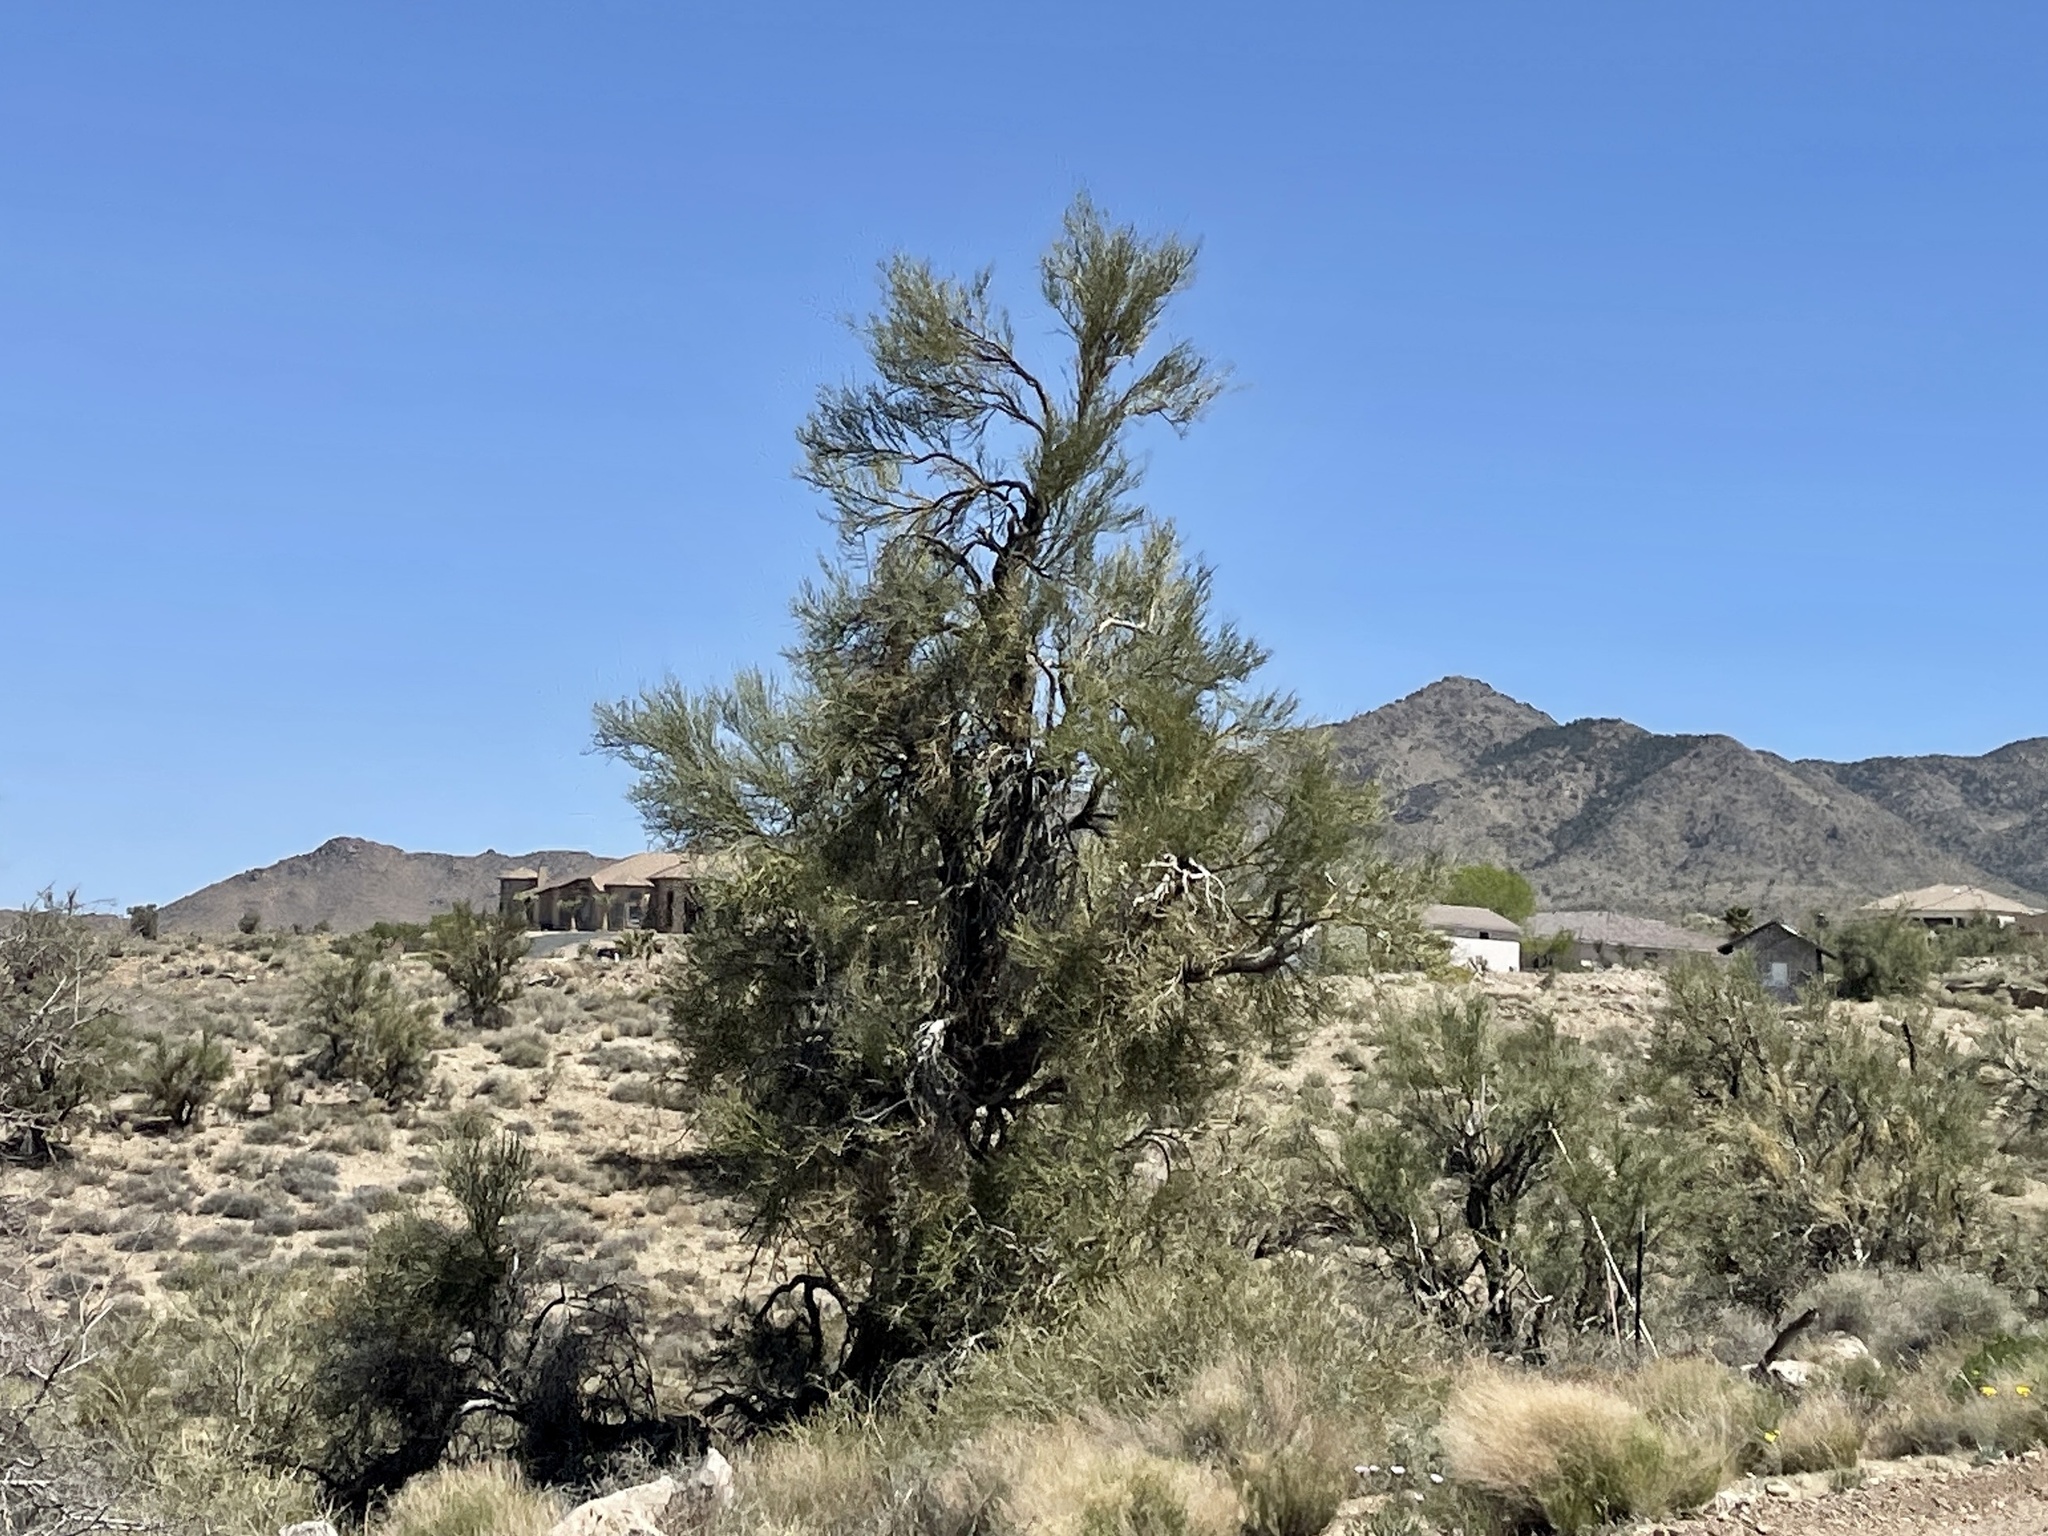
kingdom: Plantae
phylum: Tracheophyta
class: Magnoliopsida
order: Celastrales
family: Celastraceae
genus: Canotia
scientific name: Canotia holacantha
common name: Crucifixion thorns
